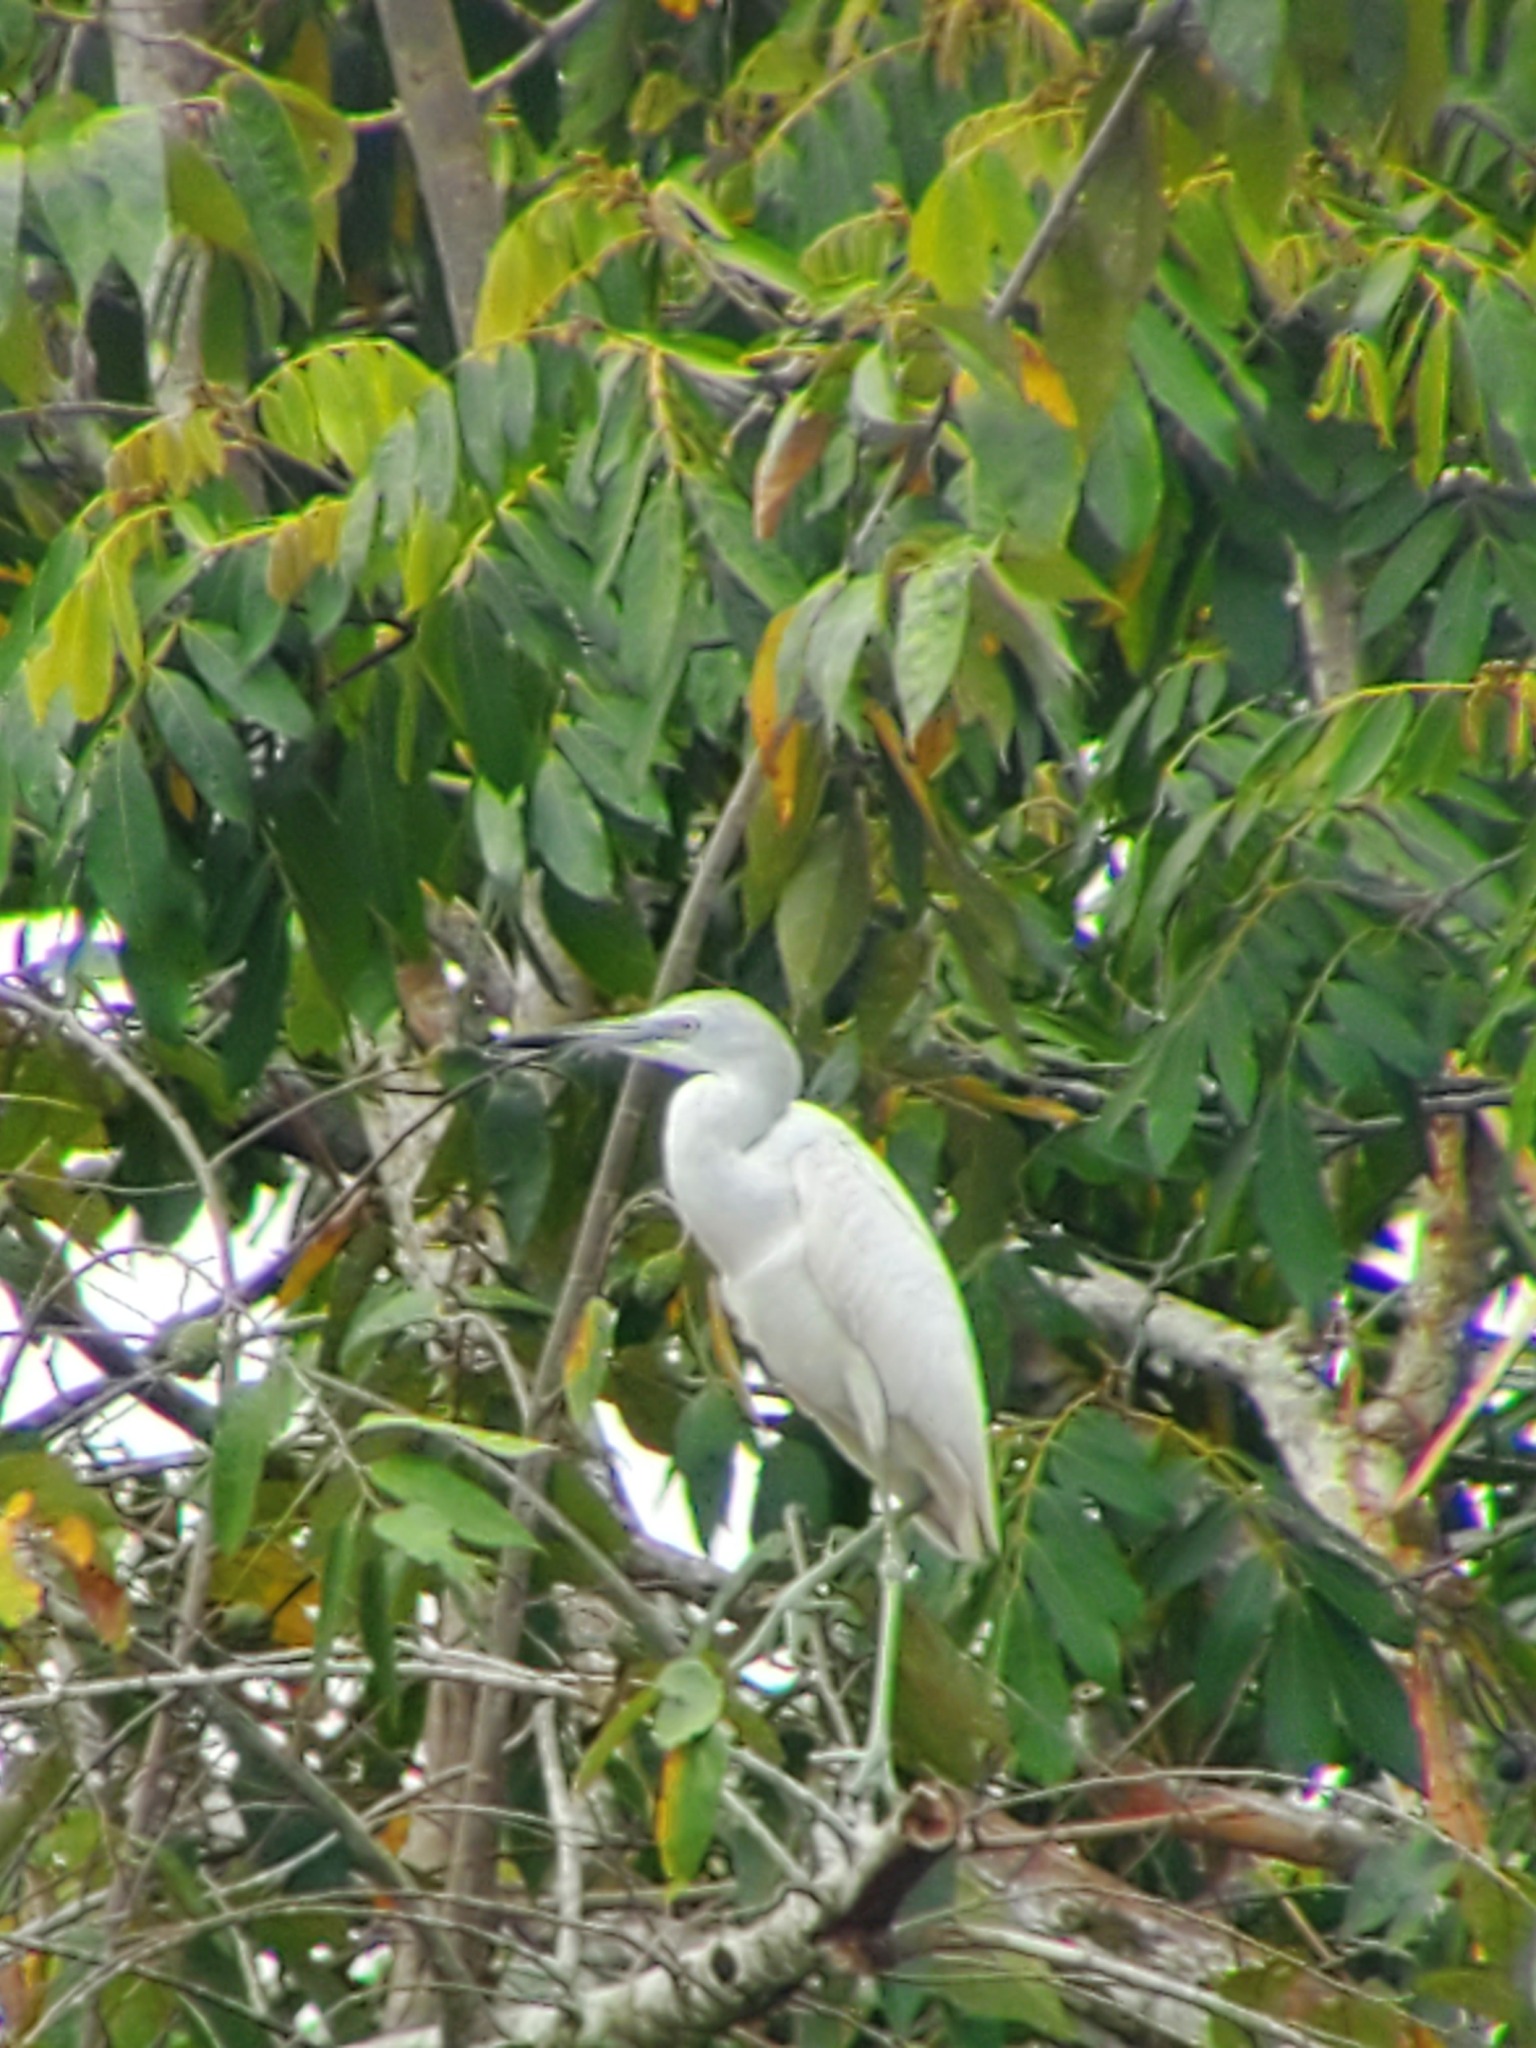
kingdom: Animalia
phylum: Chordata
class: Aves
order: Pelecaniformes
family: Ardeidae
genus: Egretta
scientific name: Egretta caerulea
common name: Little blue heron
